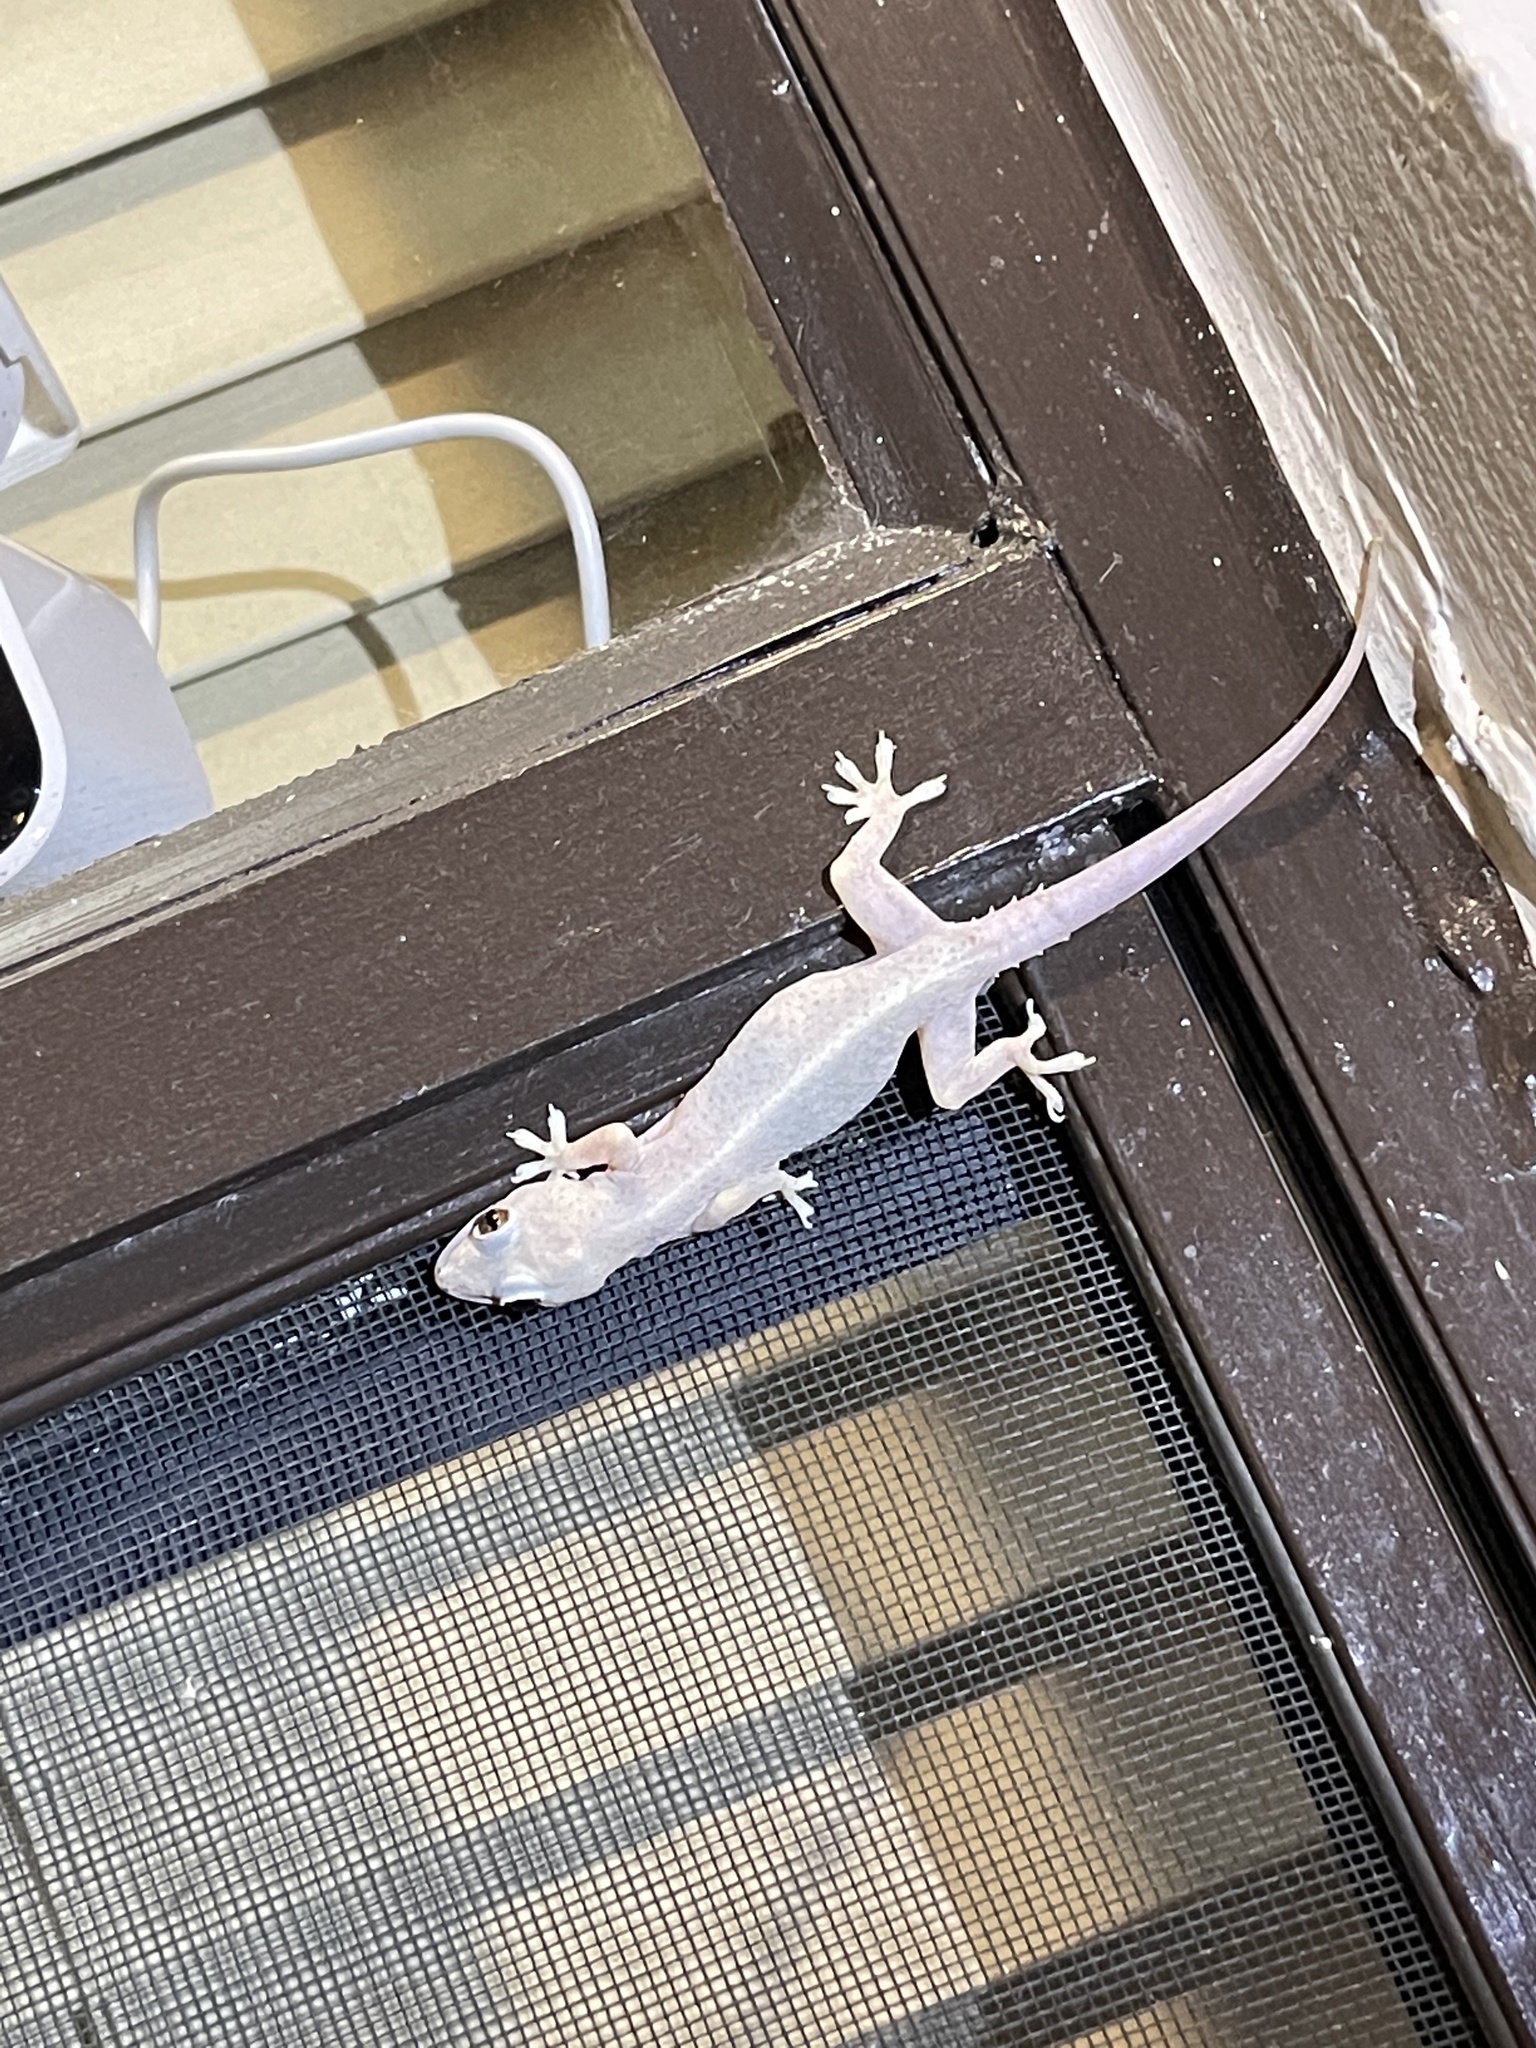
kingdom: Animalia
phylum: Chordata
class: Squamata
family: Gekkonidae
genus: Hemidactylus
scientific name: Hemidactylus mabouia
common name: House gecko
